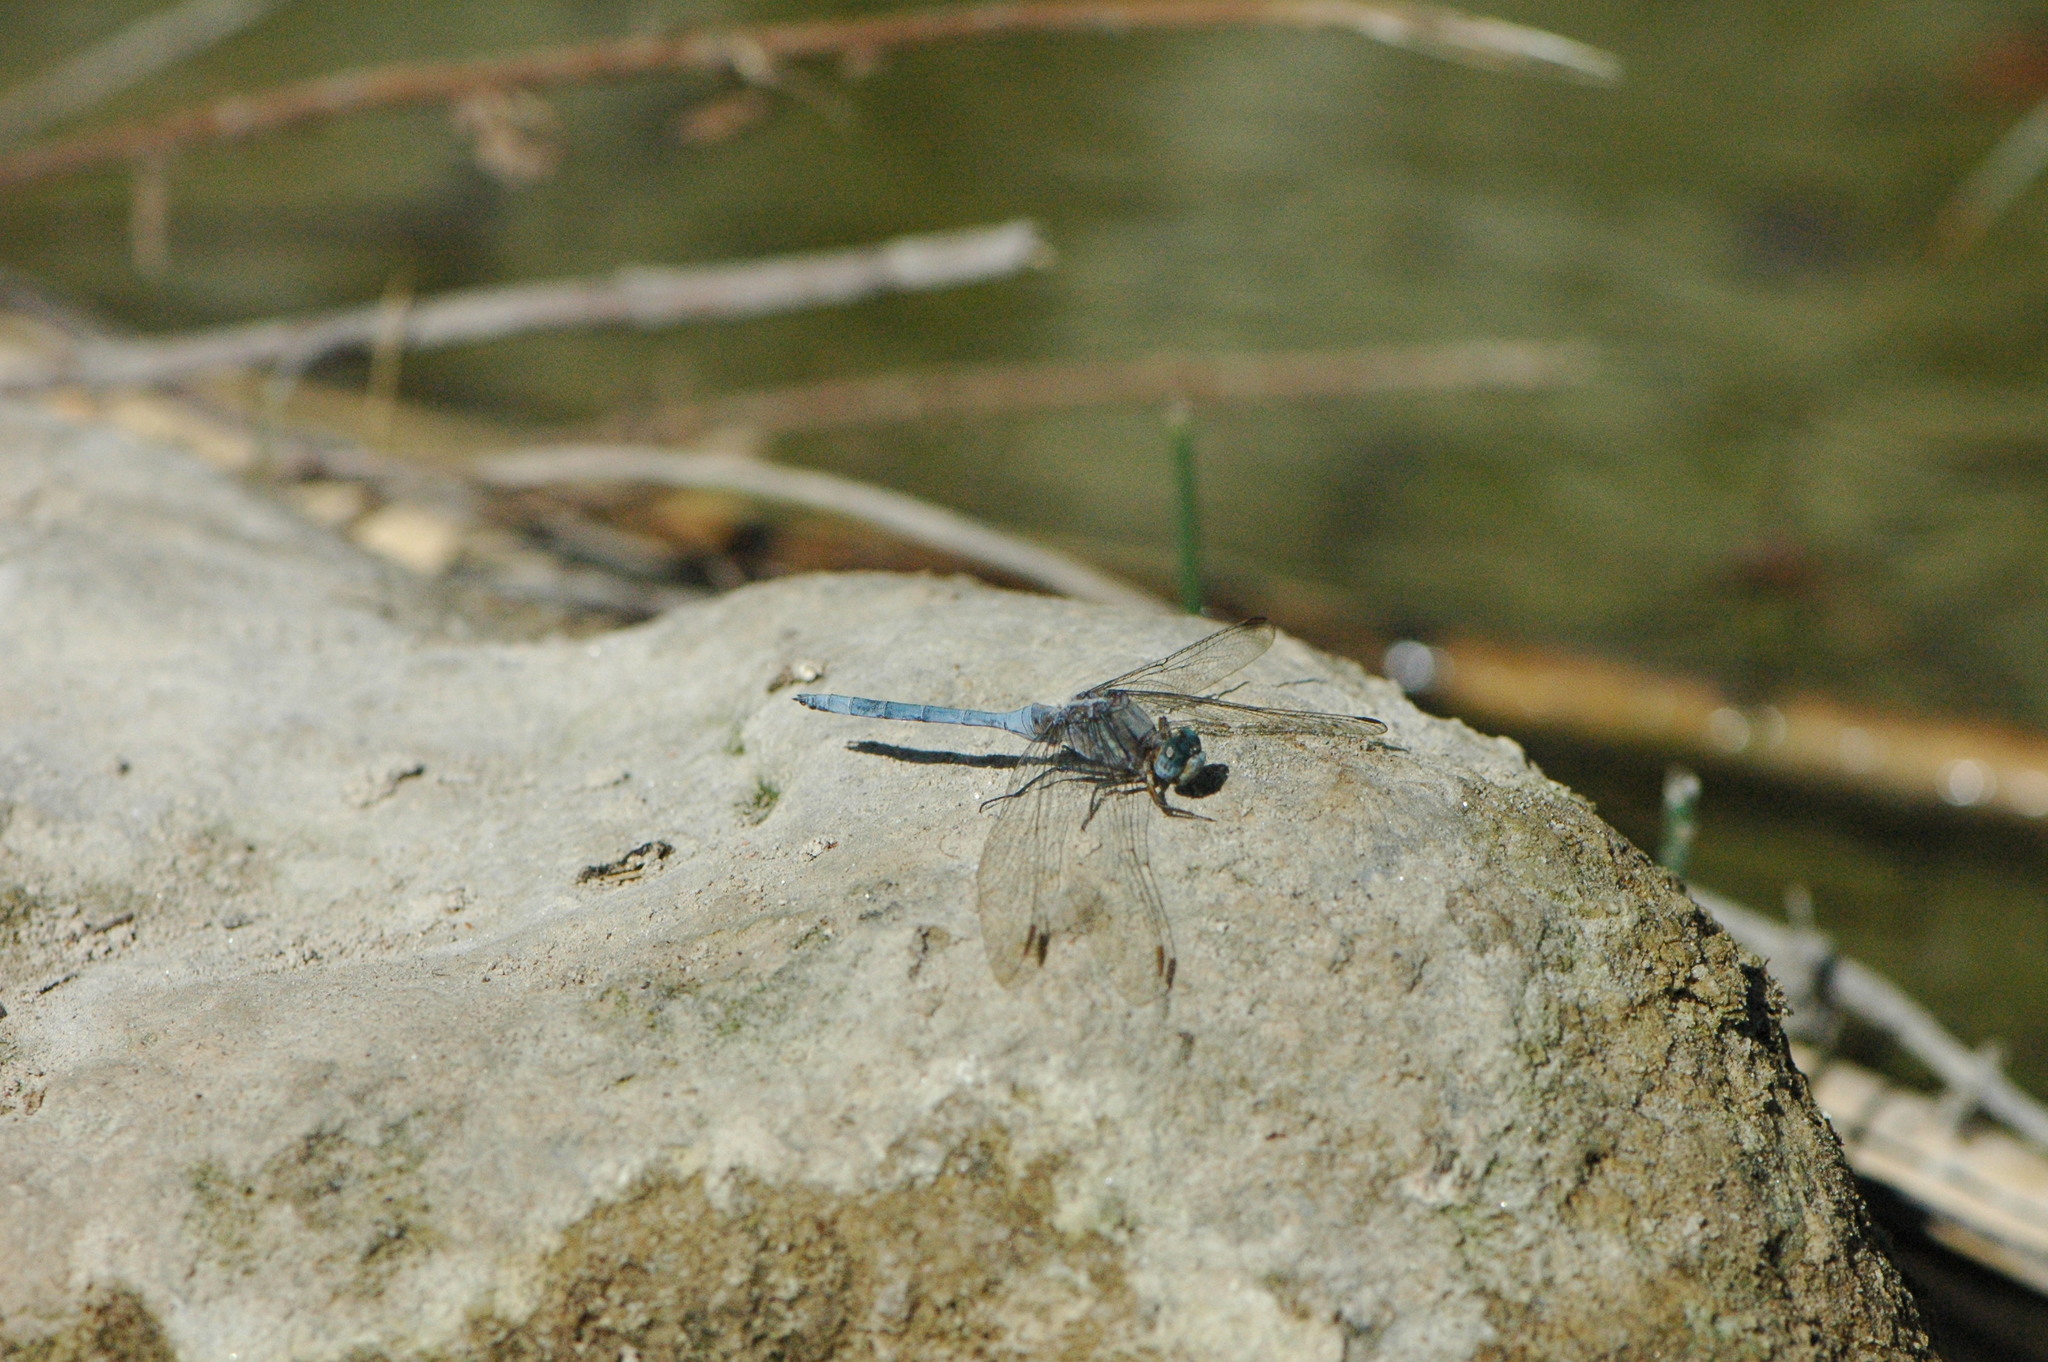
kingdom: Animalia
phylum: Arthropoda
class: Insecta
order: Odonata
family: Libellulidae
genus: Orthetrum
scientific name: Orthetrum chrysostigma
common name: Epaulet skimmer
